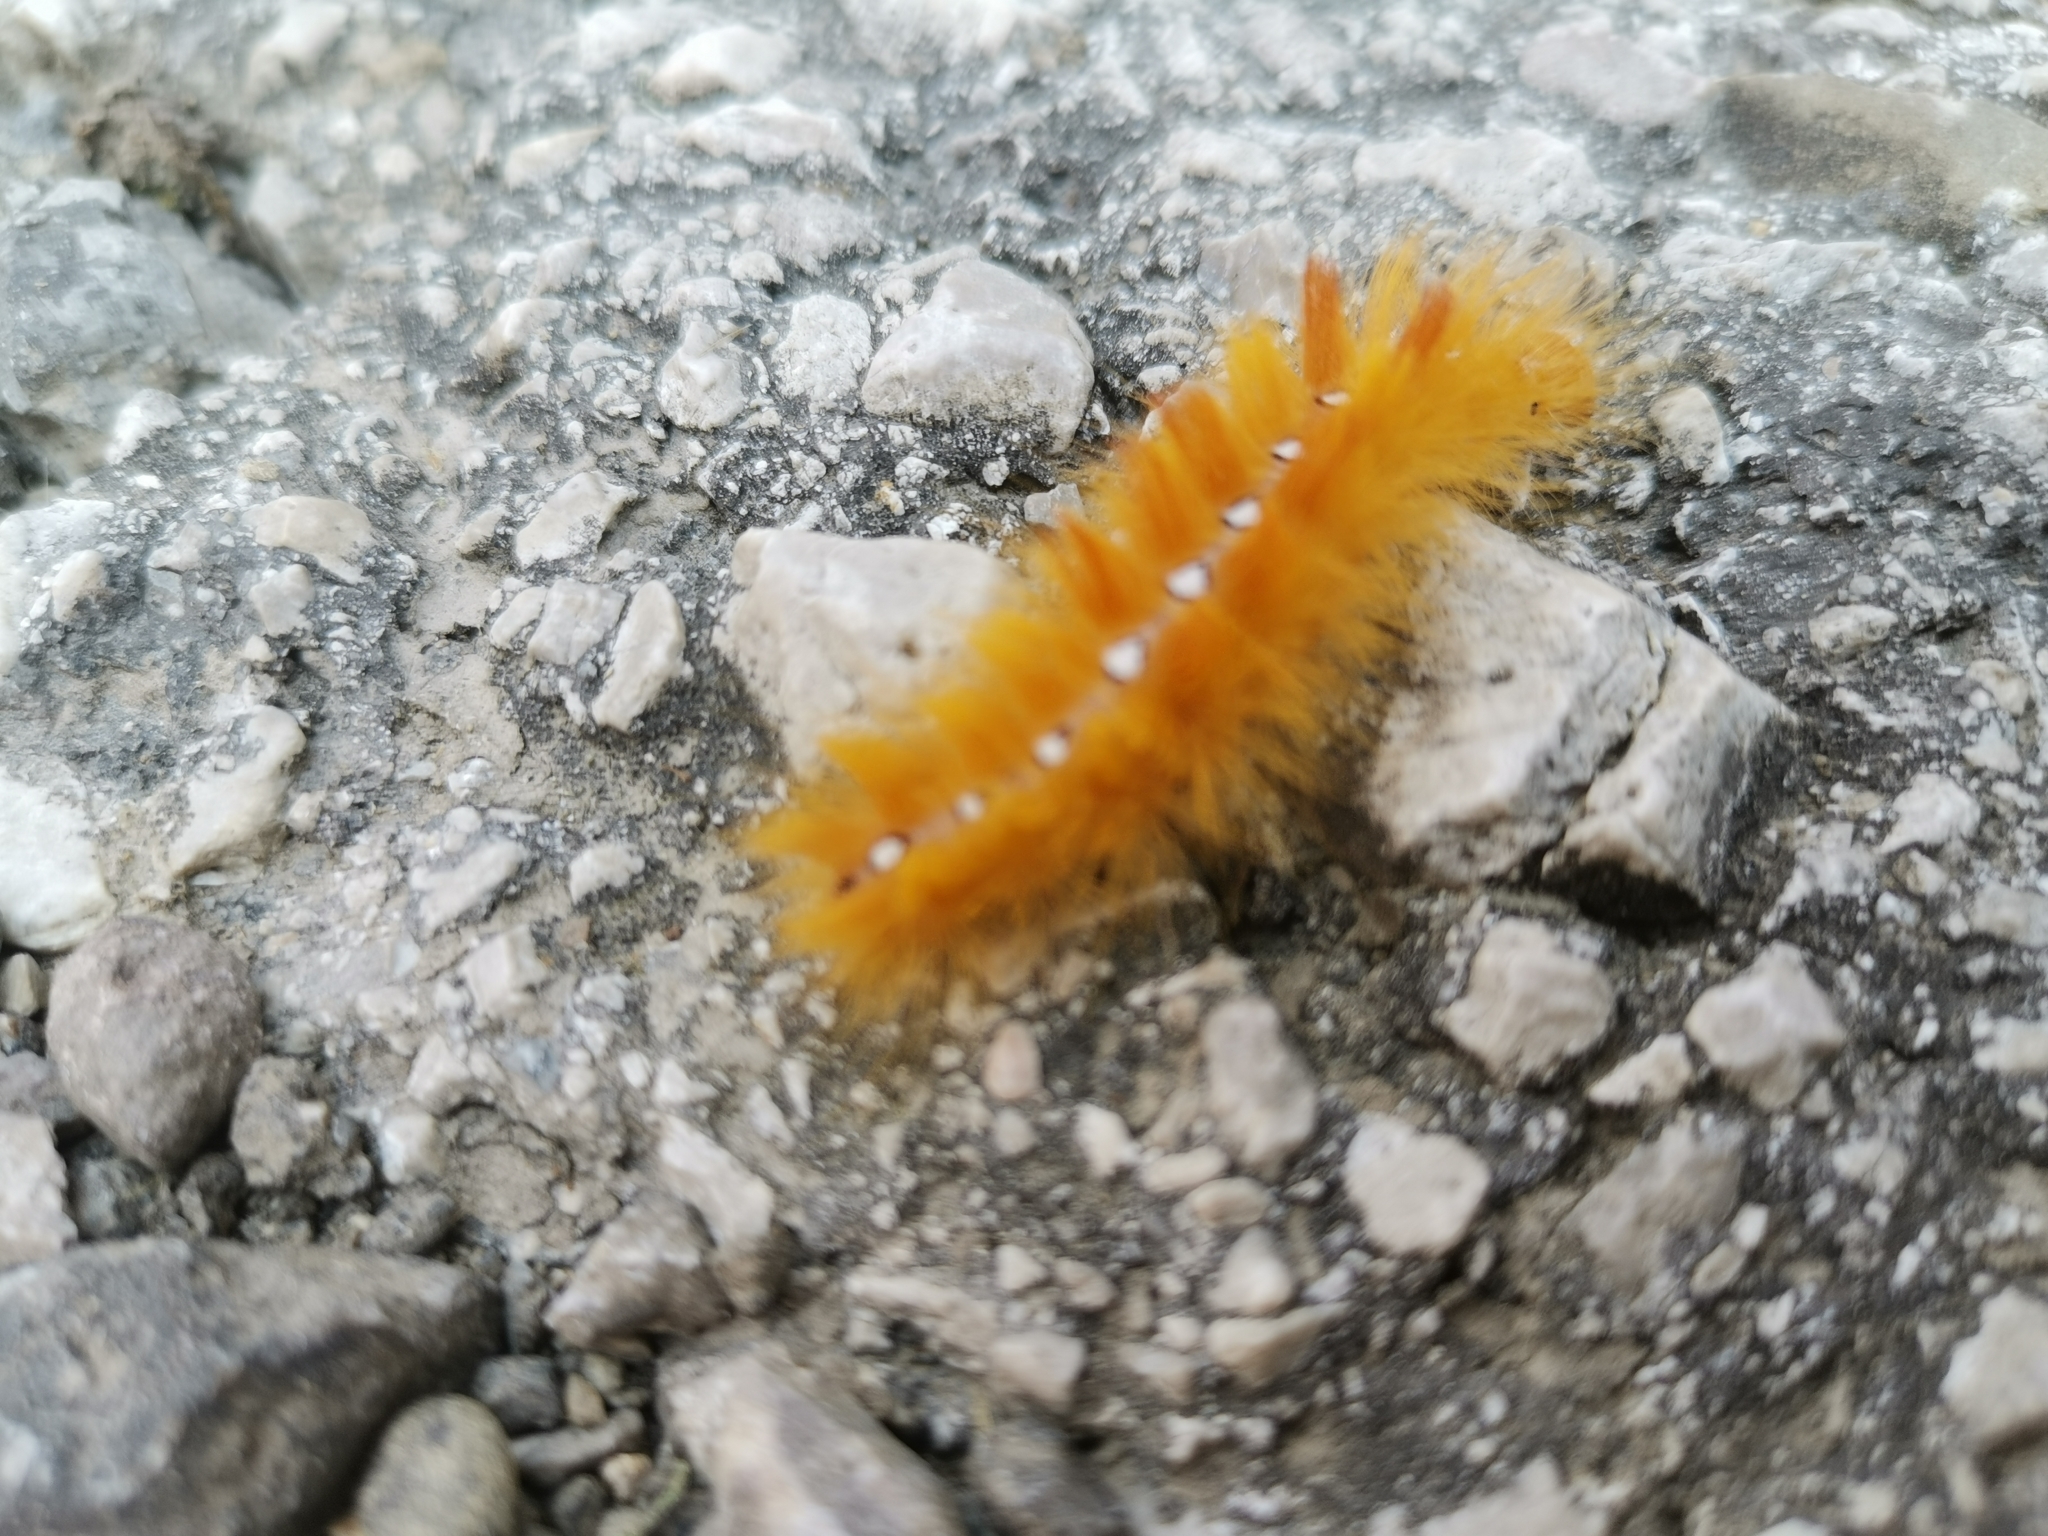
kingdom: Animalia
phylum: Arthropoda
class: Insecta
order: Lepidoptera
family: Noctuidae
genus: Acronicta
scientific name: Acronicta aceris
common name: Sycamore
